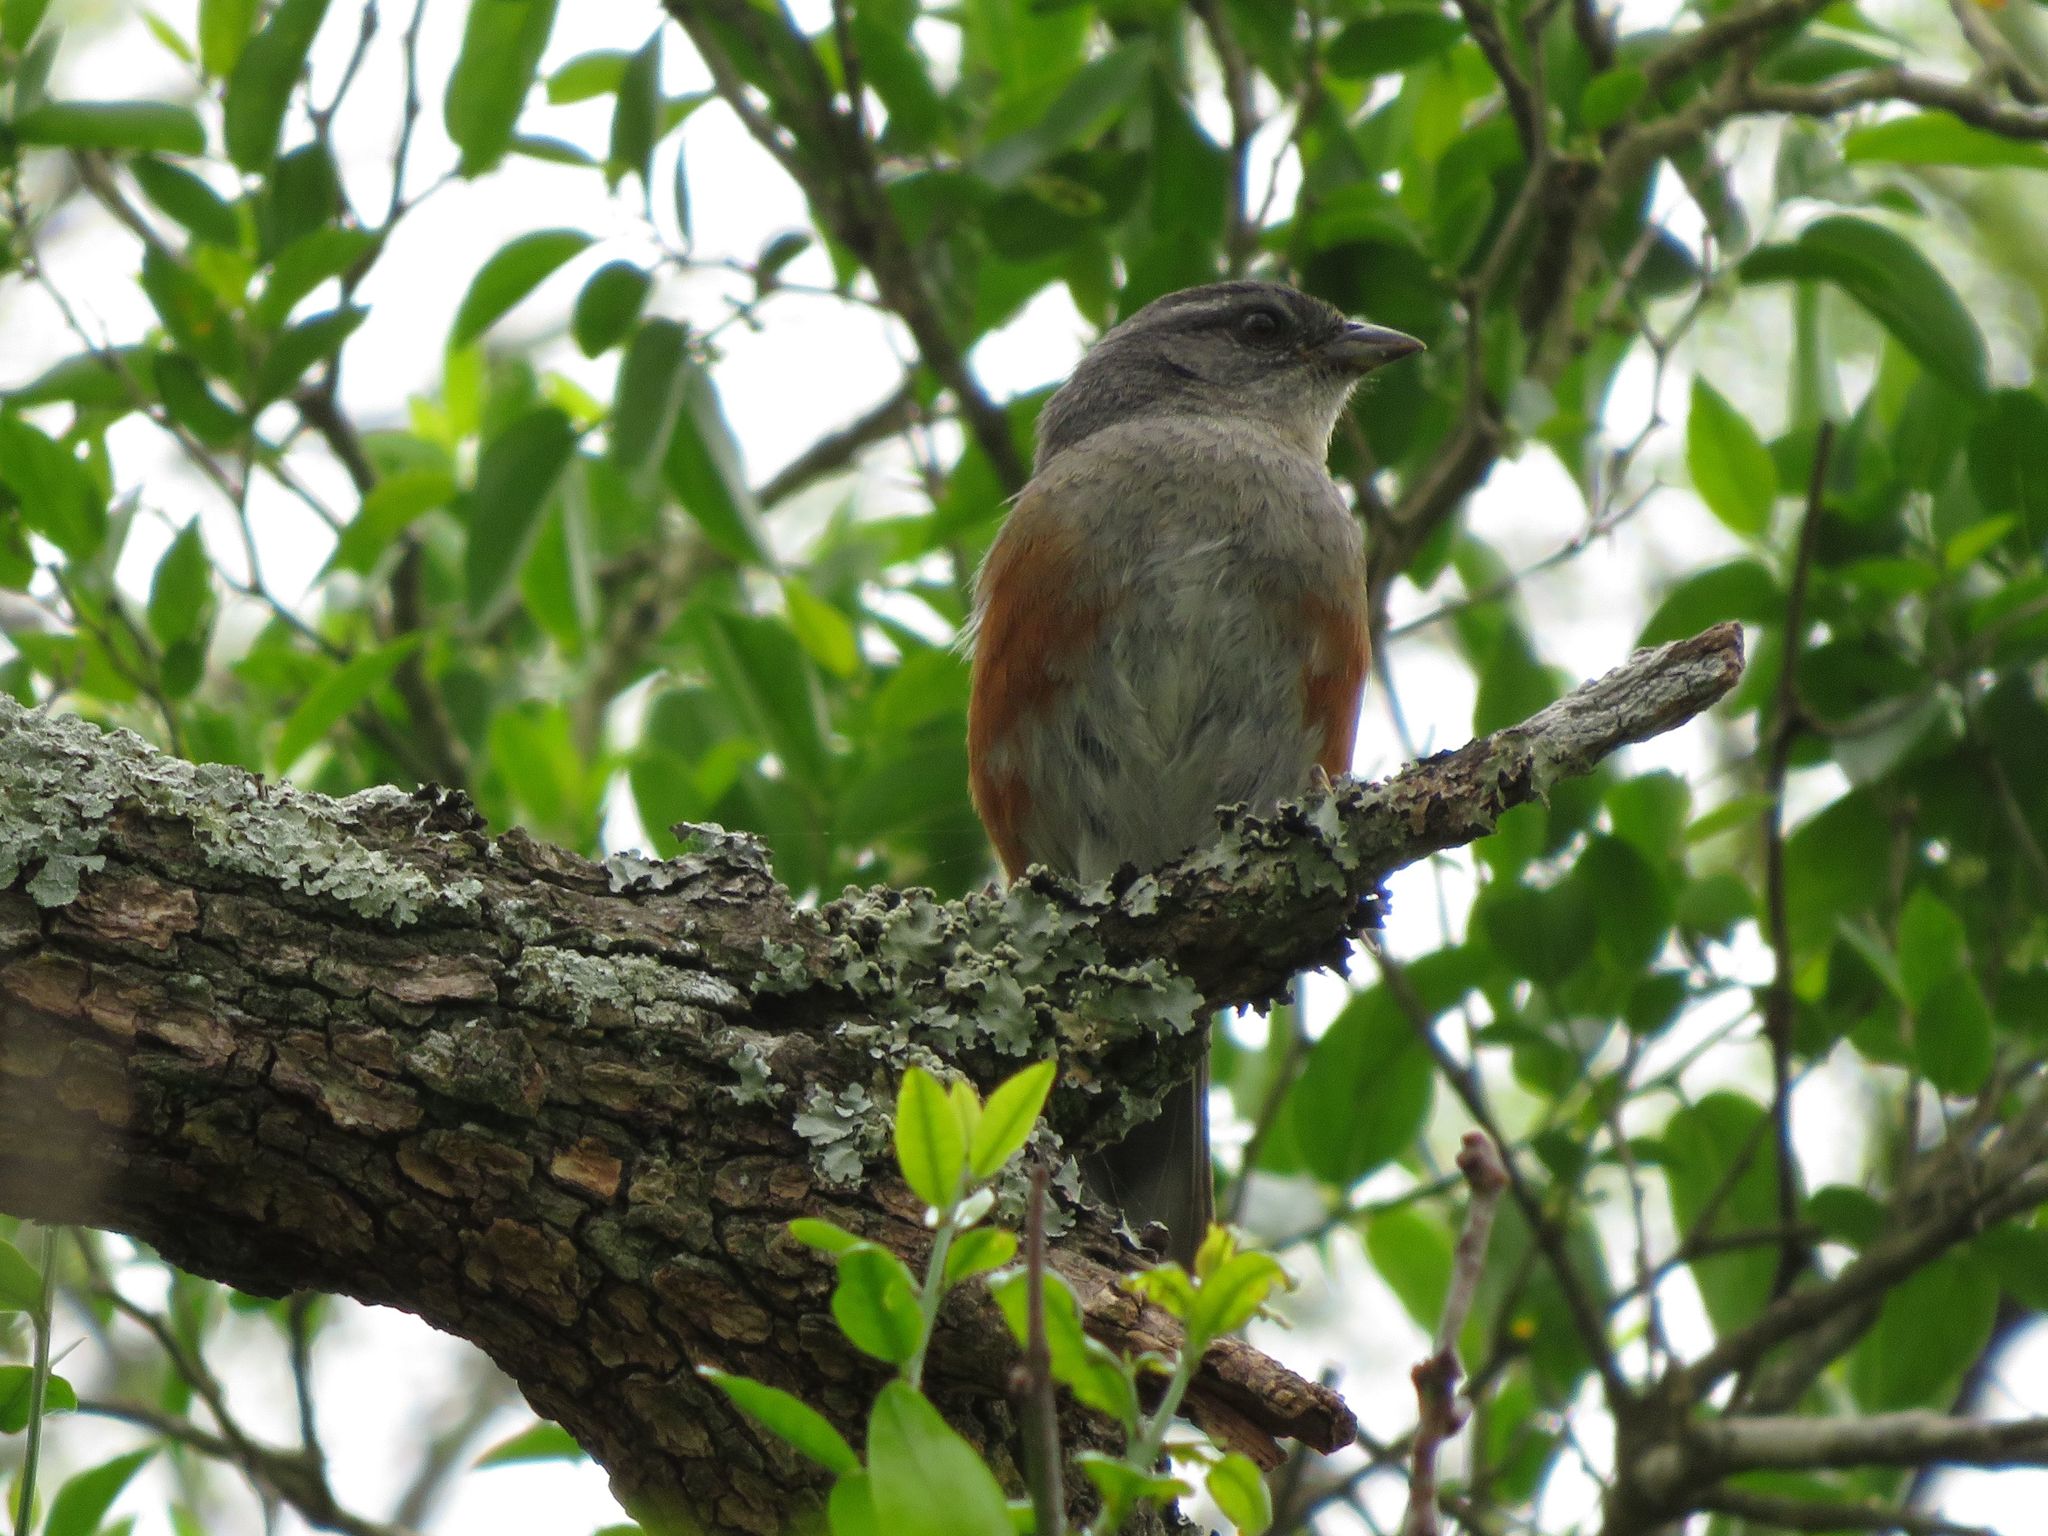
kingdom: Animalia
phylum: Chordata
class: Aves
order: Passeriformes
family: Thraupidae
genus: Microspingus
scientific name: Microspingus cabanisi
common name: Gray-throated warbling-finch
